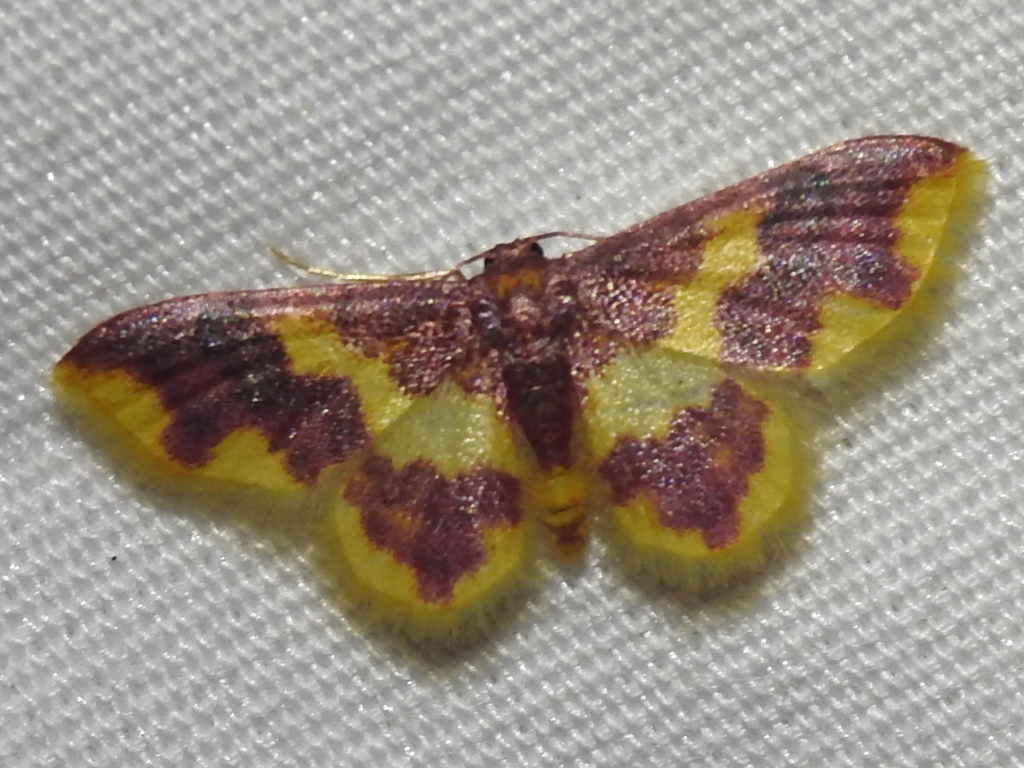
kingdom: Animalia
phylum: Arthropoda
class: Insecta
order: Lepidoptera
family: Geometridae
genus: Lophosis
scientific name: Lophosis labeculata
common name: Stained lophosis moth
